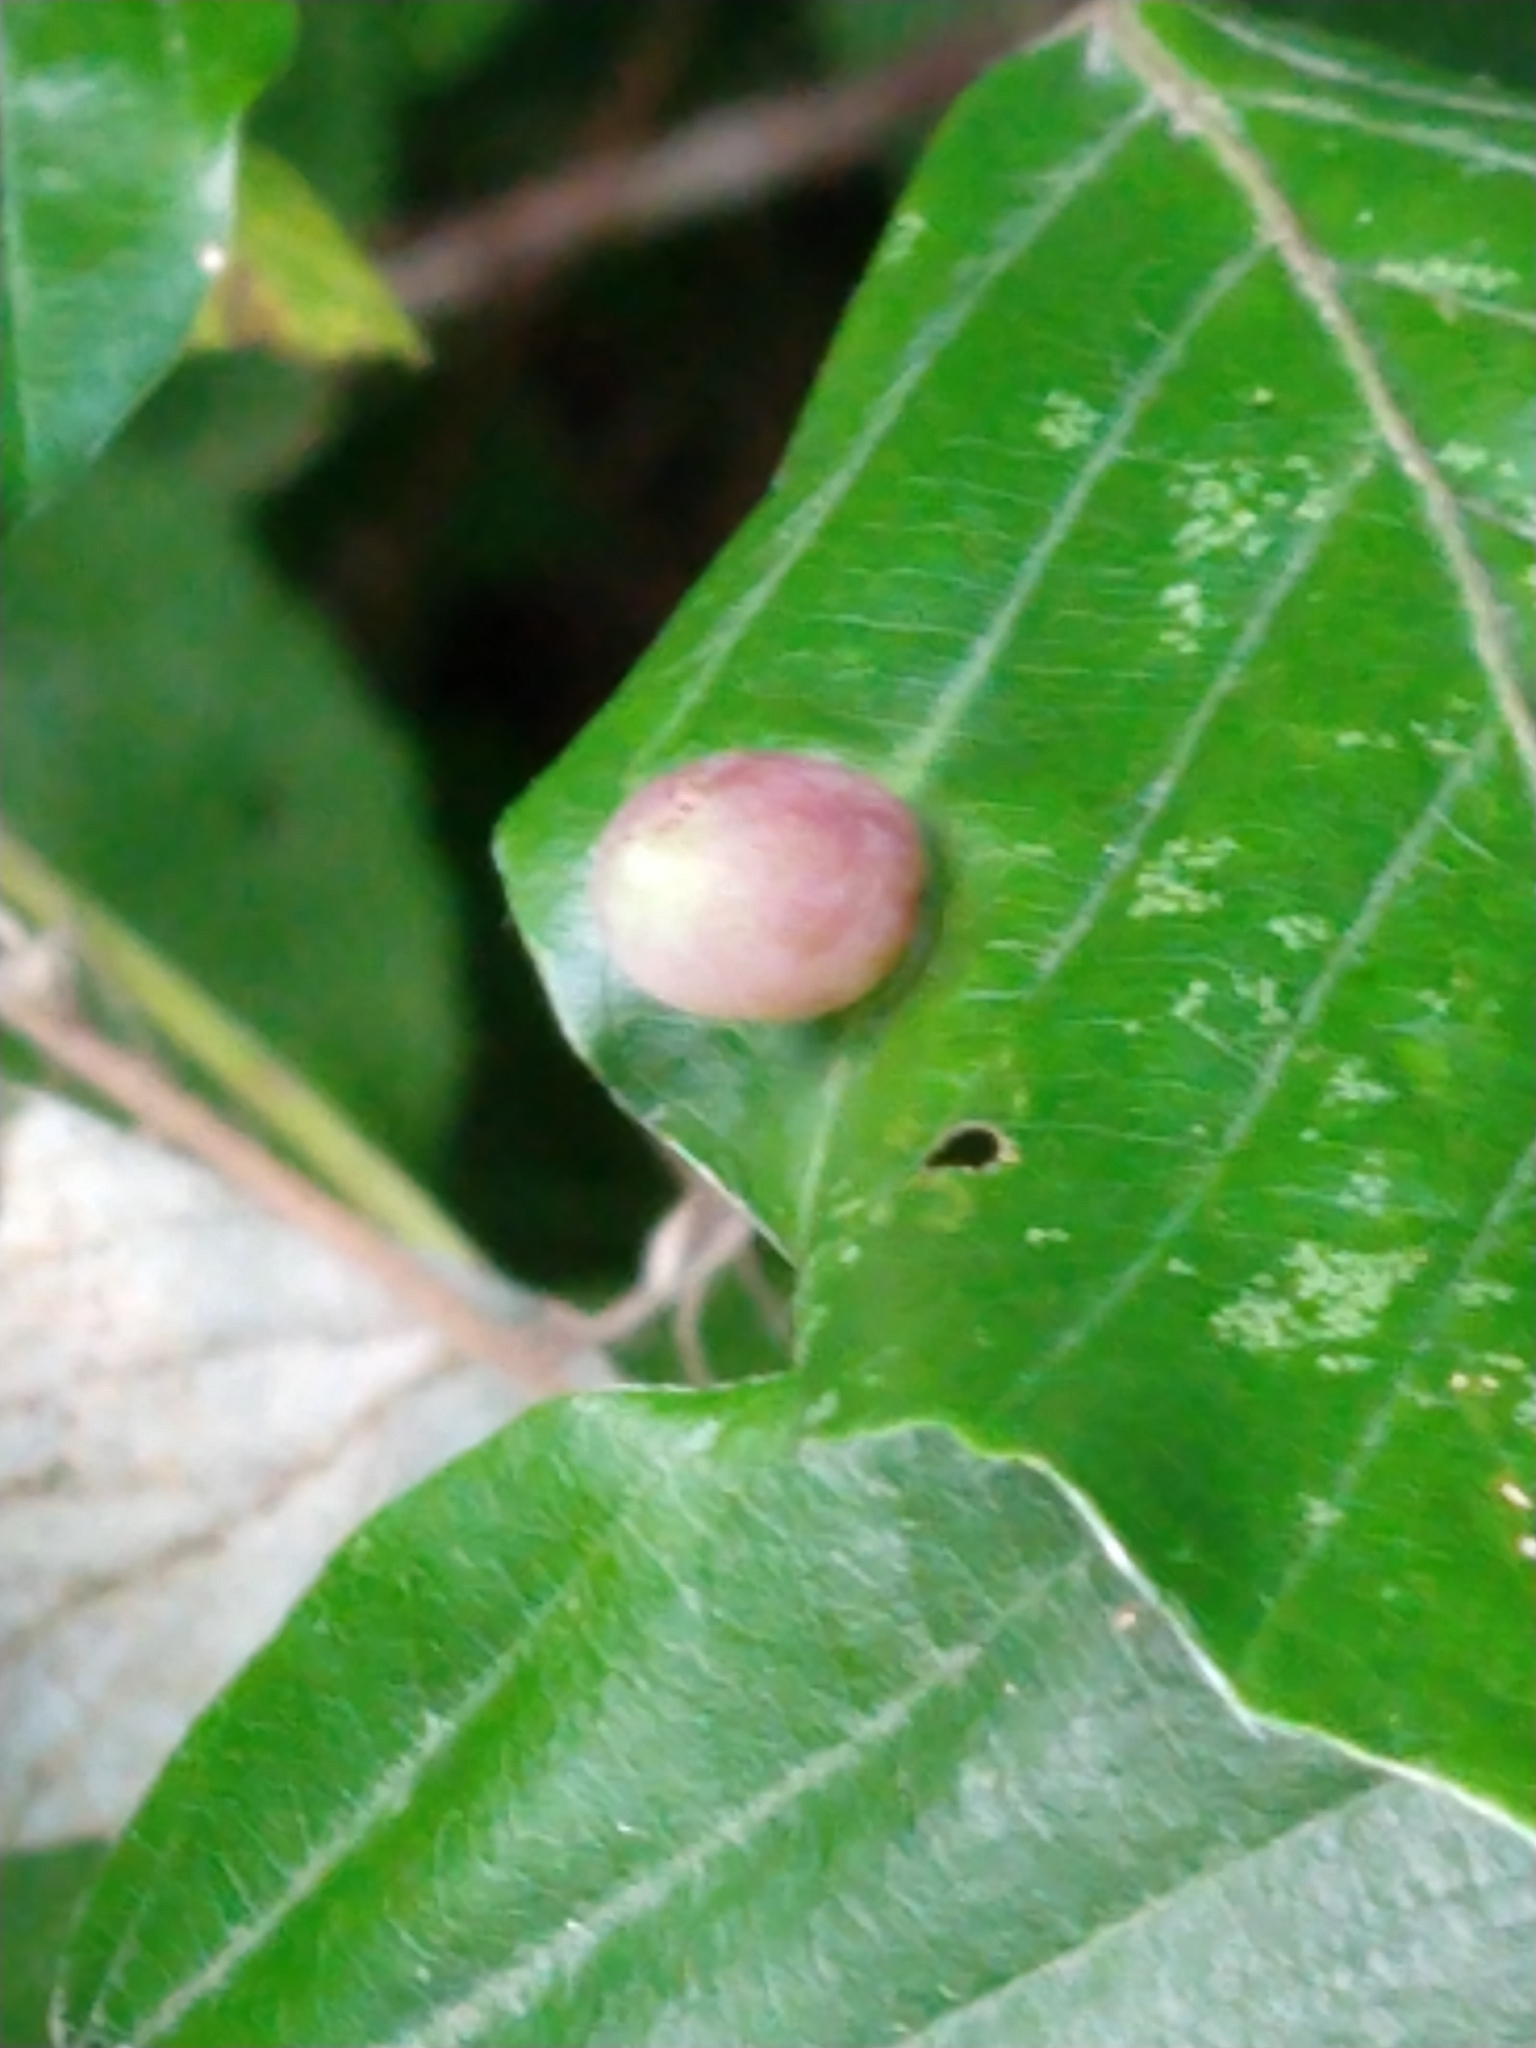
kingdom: Animalia
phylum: Arthropoda
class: Insecta
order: Diptera
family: Cecidomyiidae
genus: Mikiola
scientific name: Mikiola fagi
